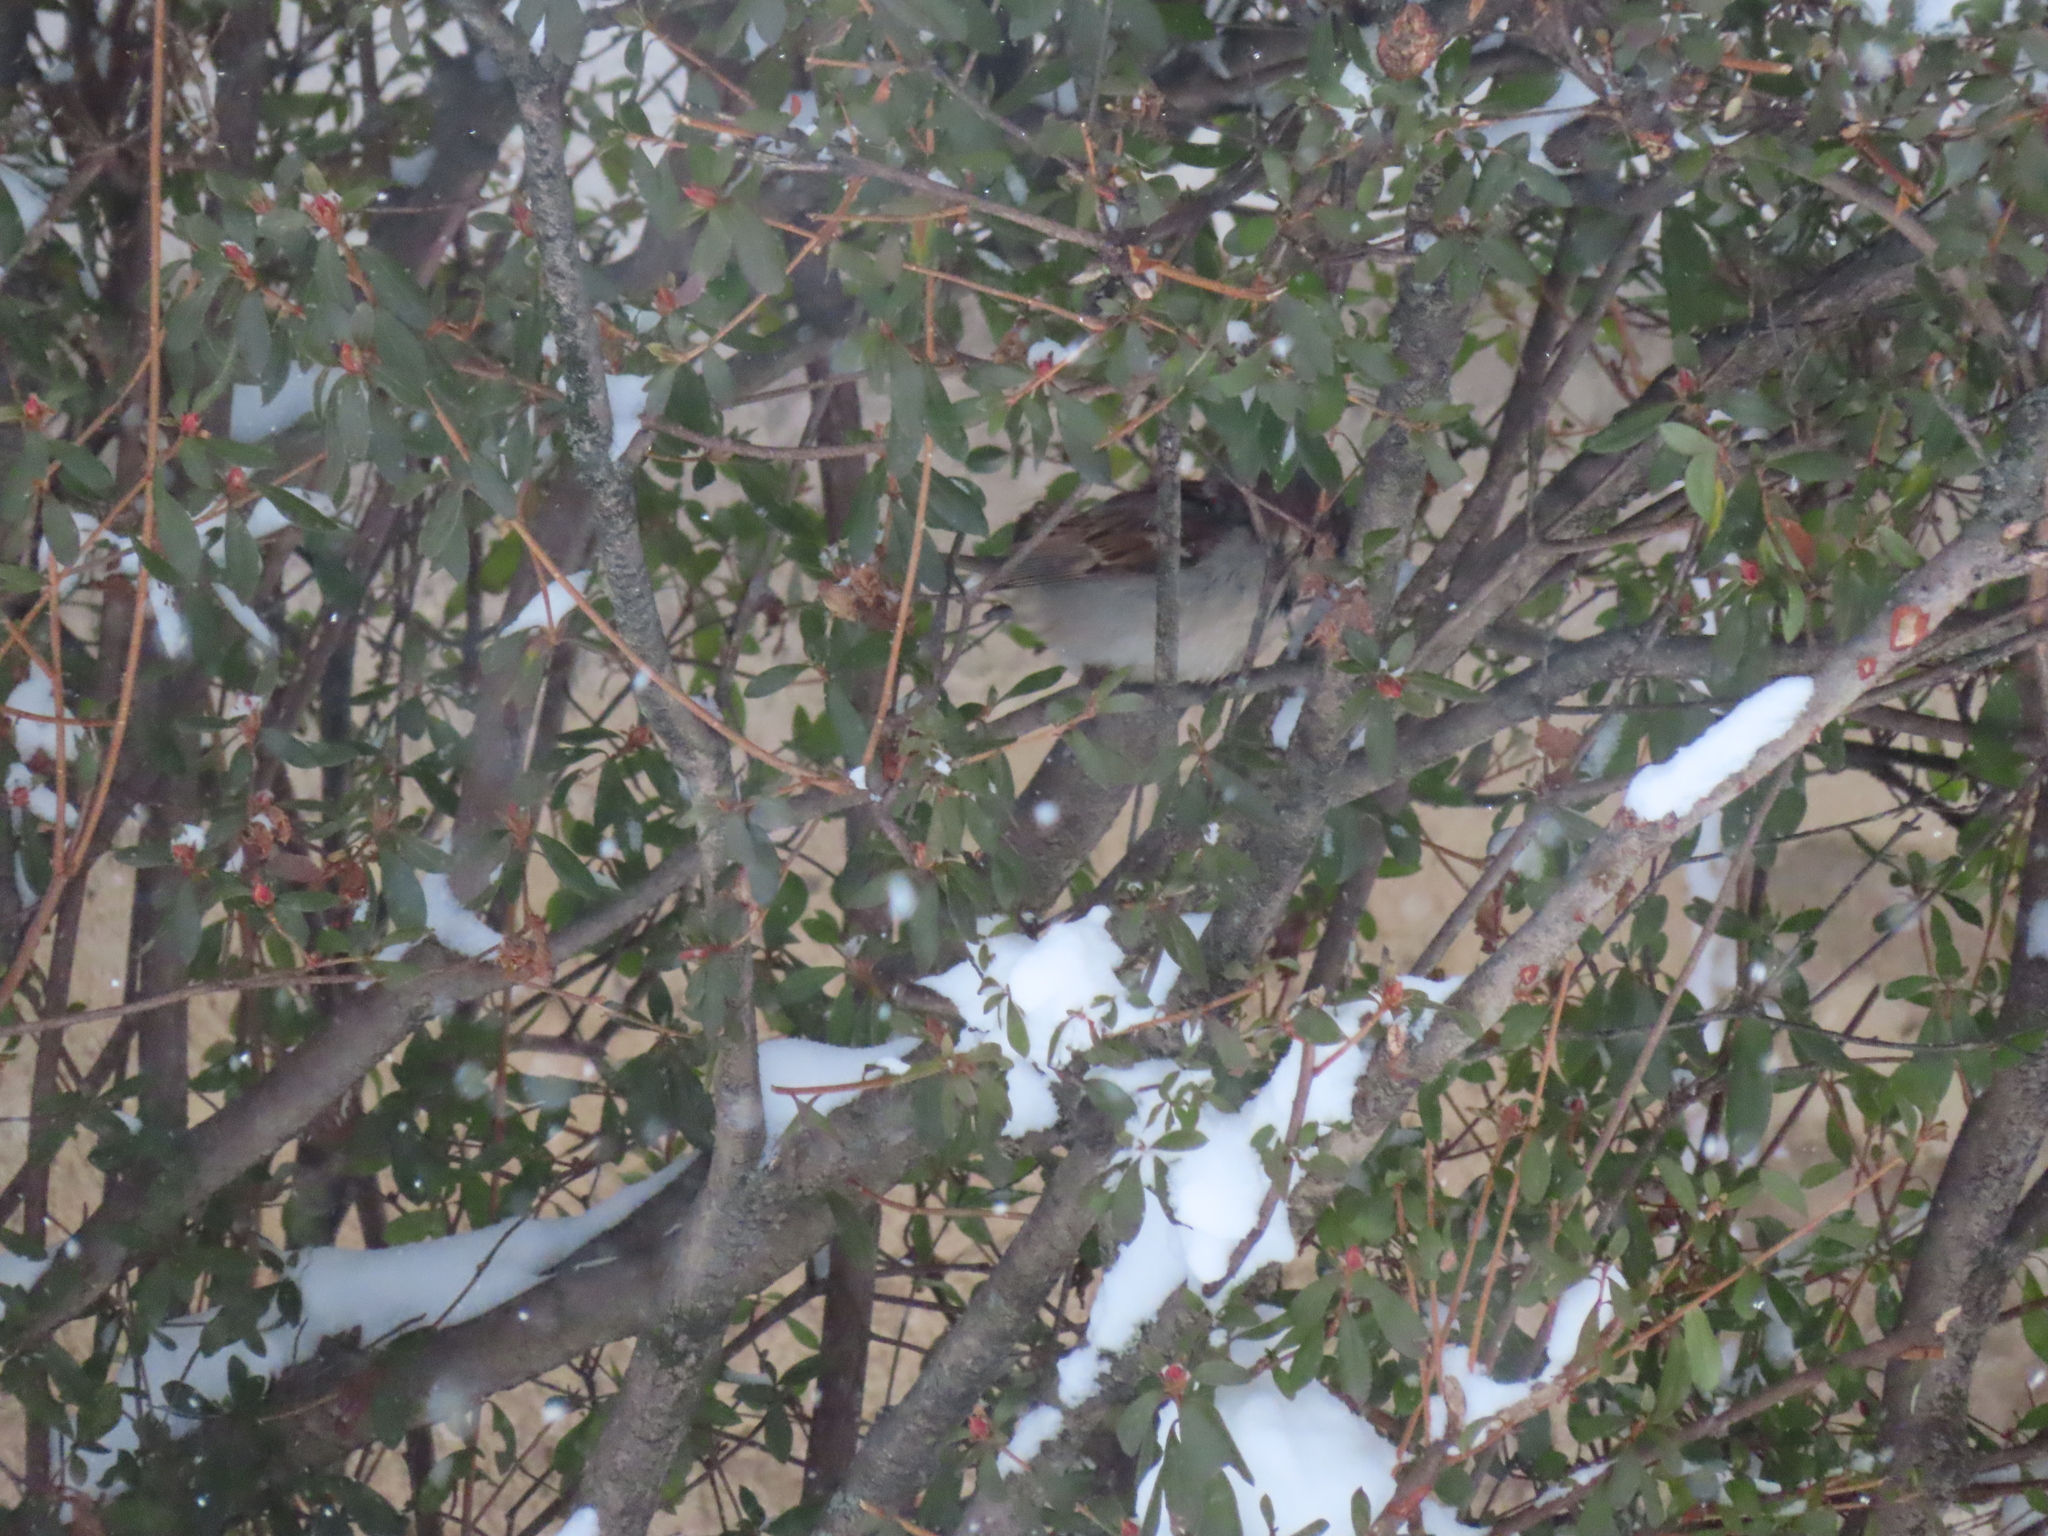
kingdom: Animalia
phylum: Chordata
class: Aves
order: Passeriformes
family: Passeridae
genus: Passer
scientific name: Passer domesticus
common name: House sparrow
